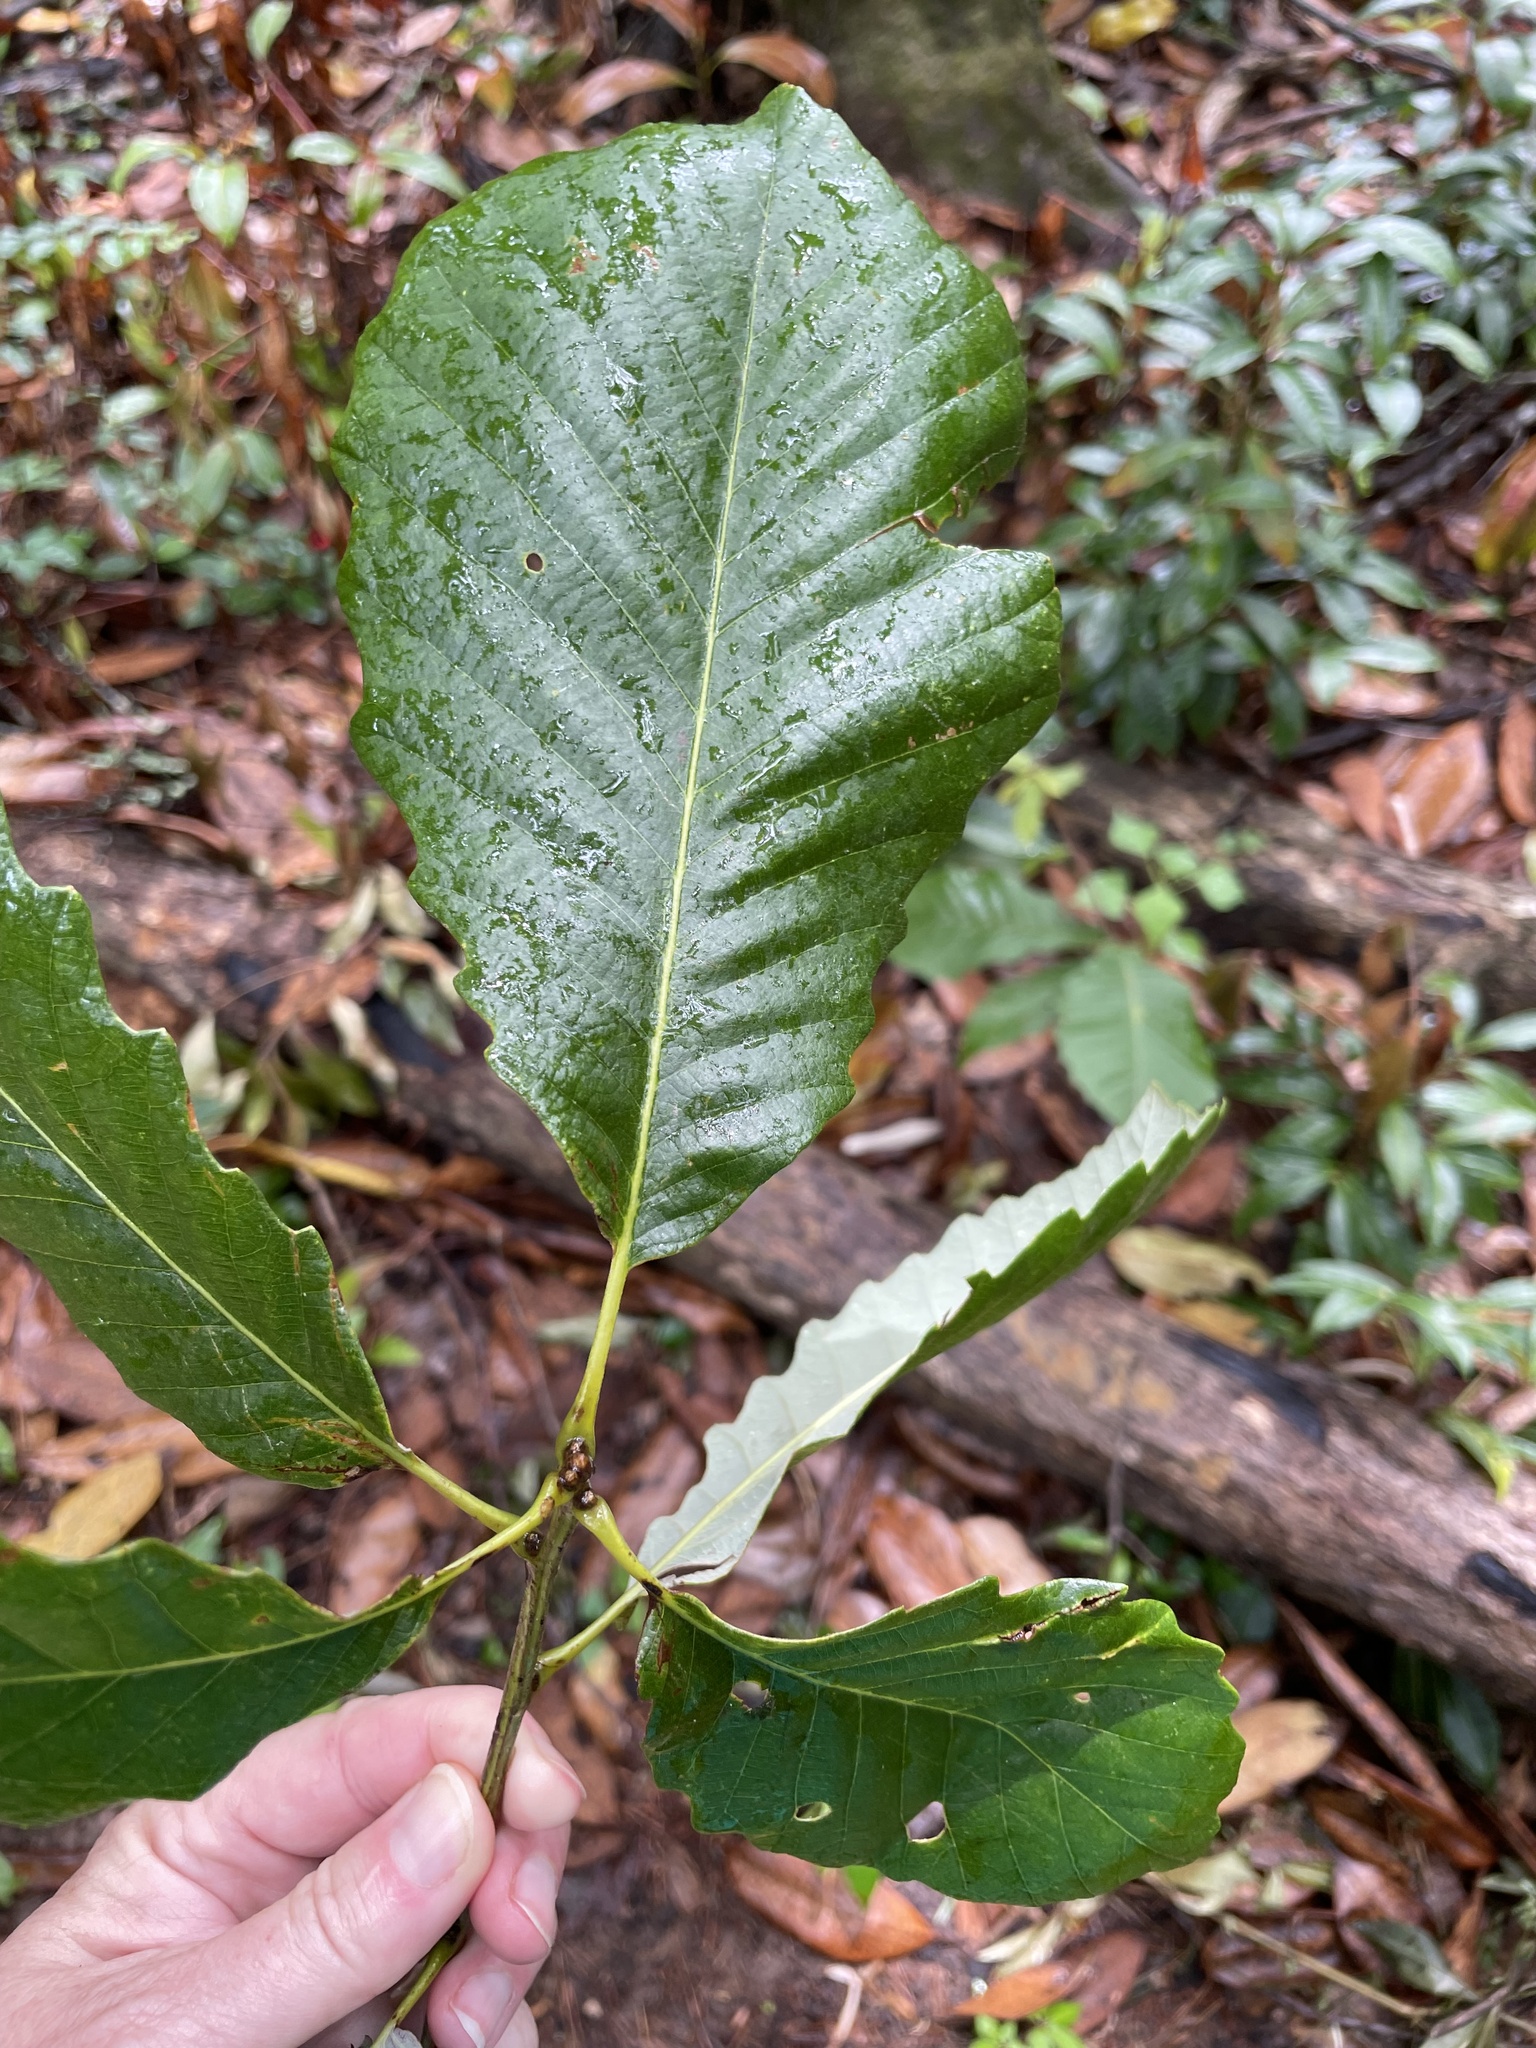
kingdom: Plantae
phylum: Tracheophyta
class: Magnoliopsida
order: Fagales
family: Fagaceae
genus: Quercus
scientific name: Quercus michauxii
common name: Swamp chestnut oak
